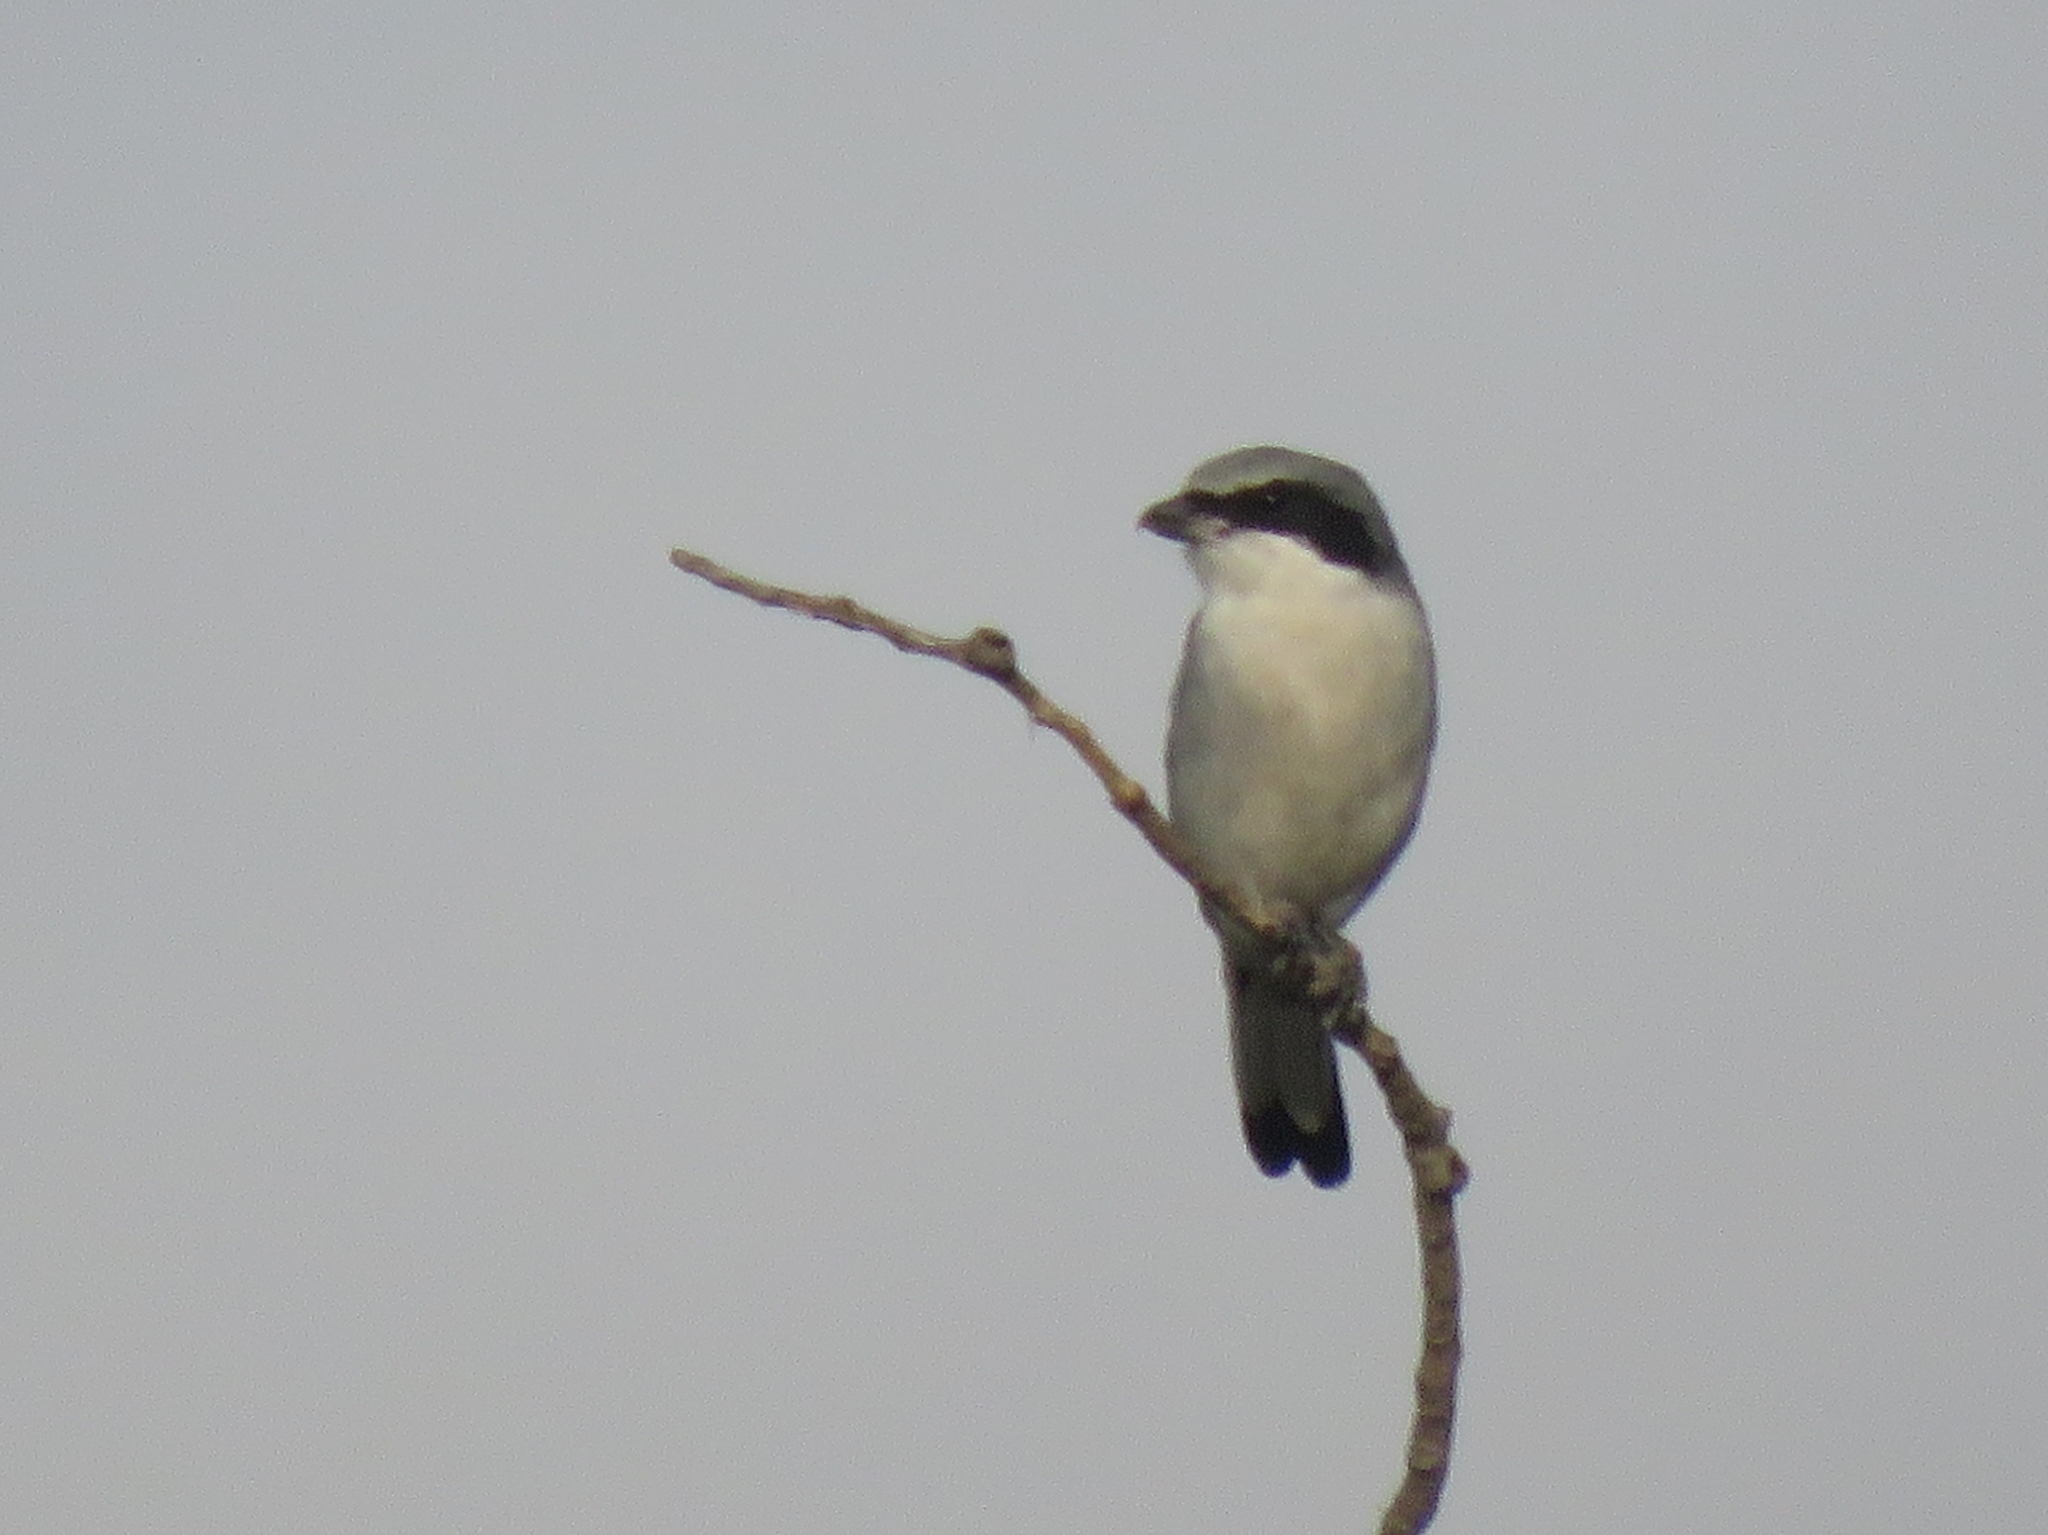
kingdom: Animalia
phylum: Chordata
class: Aves
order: Passeriformes
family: Laniidae
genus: Lanius
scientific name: Lanius ludovicianus
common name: Loggerhead shrike
